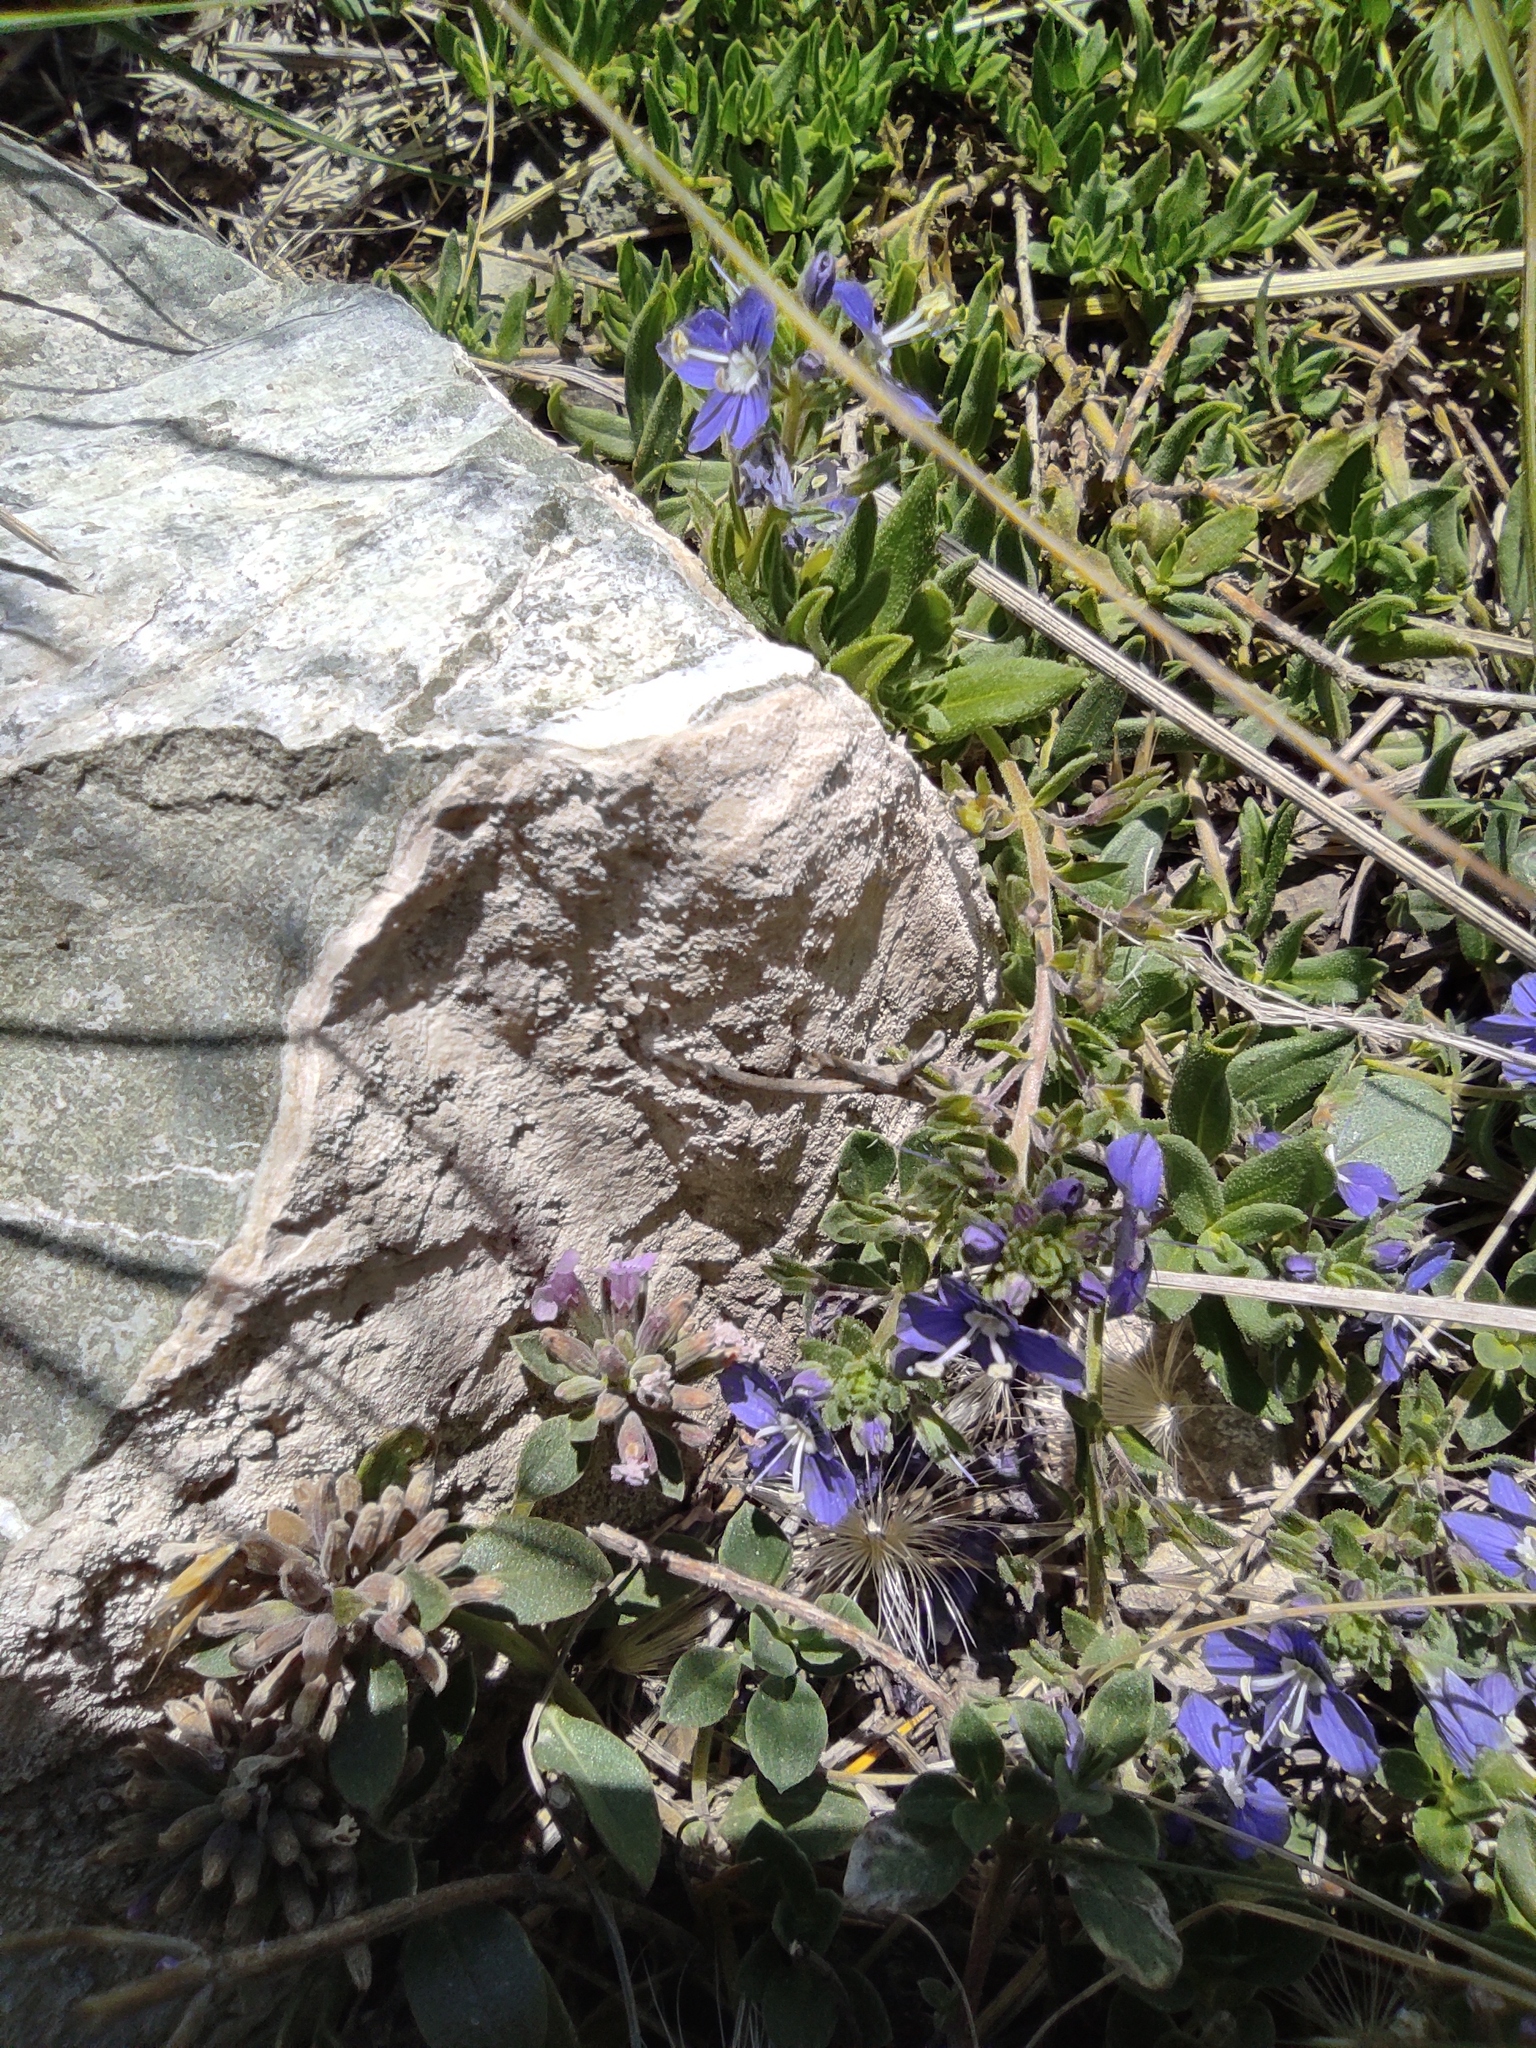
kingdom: Plantae
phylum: Tracheophyta
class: Magnoliopsida
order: Lamiales
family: Plantaginaceae
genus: Veronica
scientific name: Veronica orientalis
